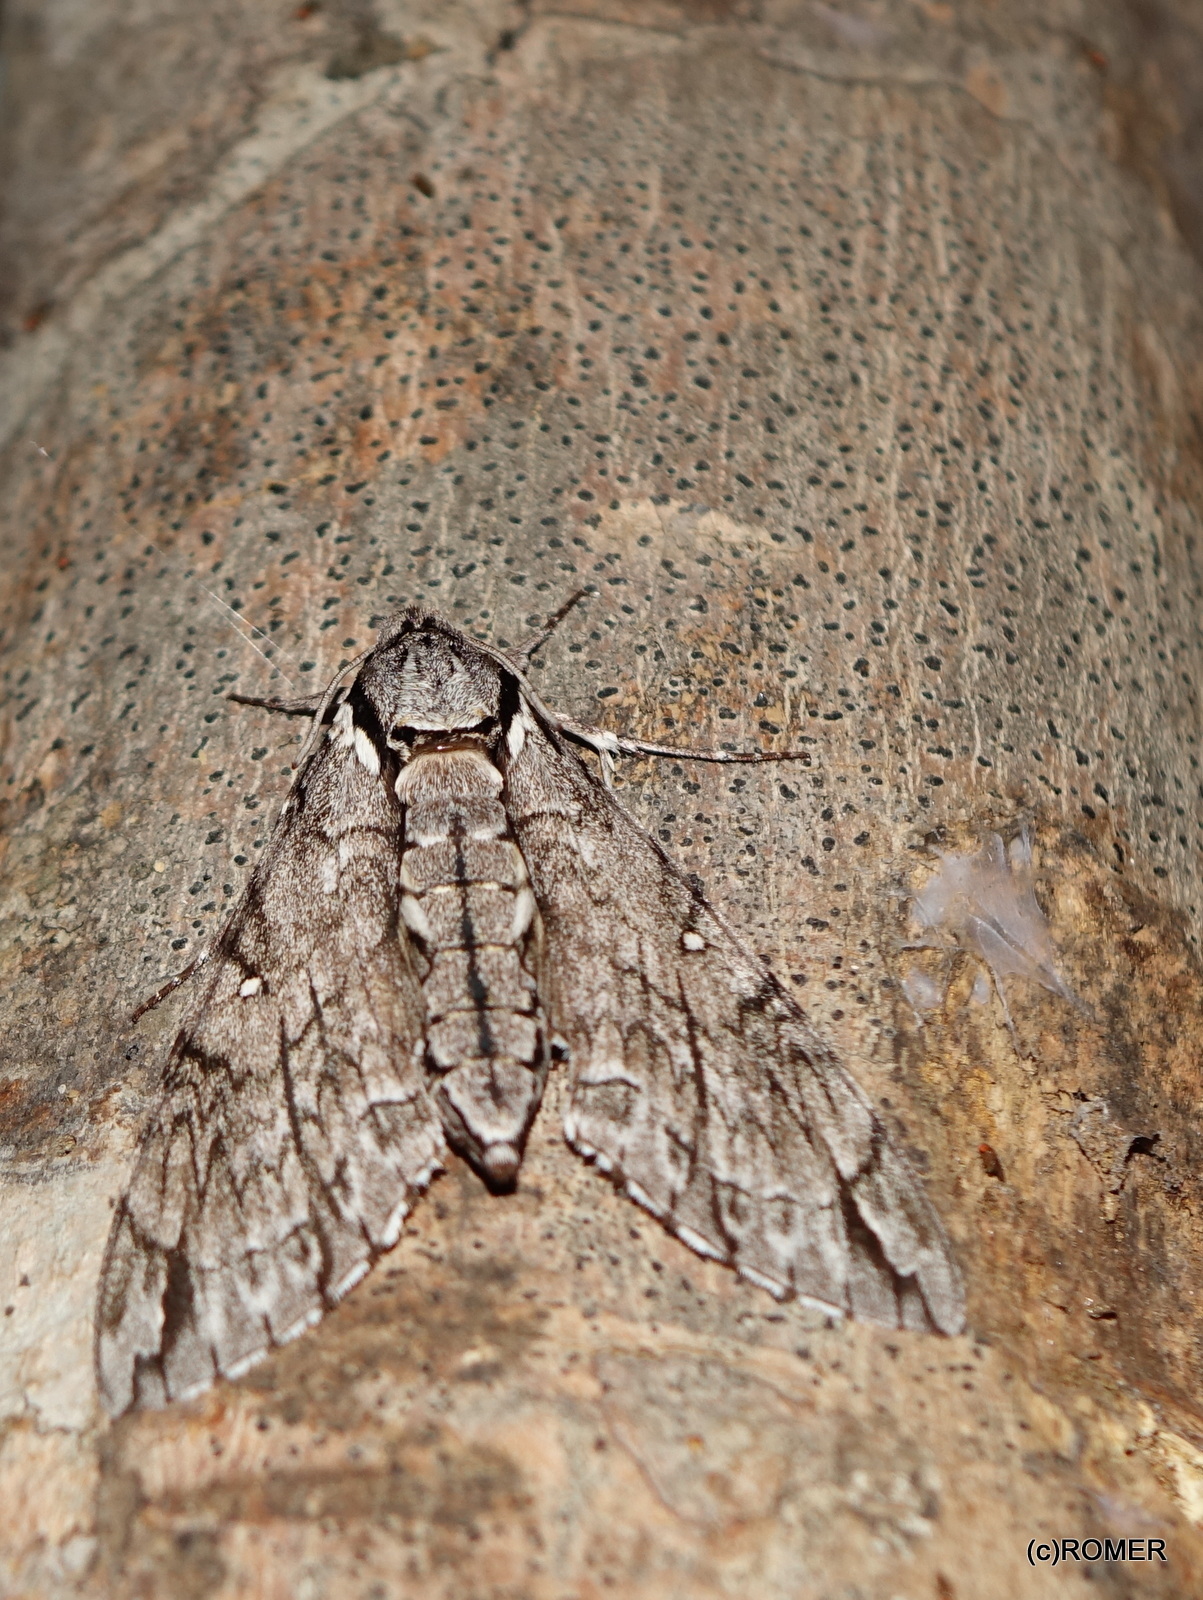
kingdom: Animalia
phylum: Arthropoda
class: Insecta
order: Lepidoptera
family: Sphingidae
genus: Panogena
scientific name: Panogena jasmini
